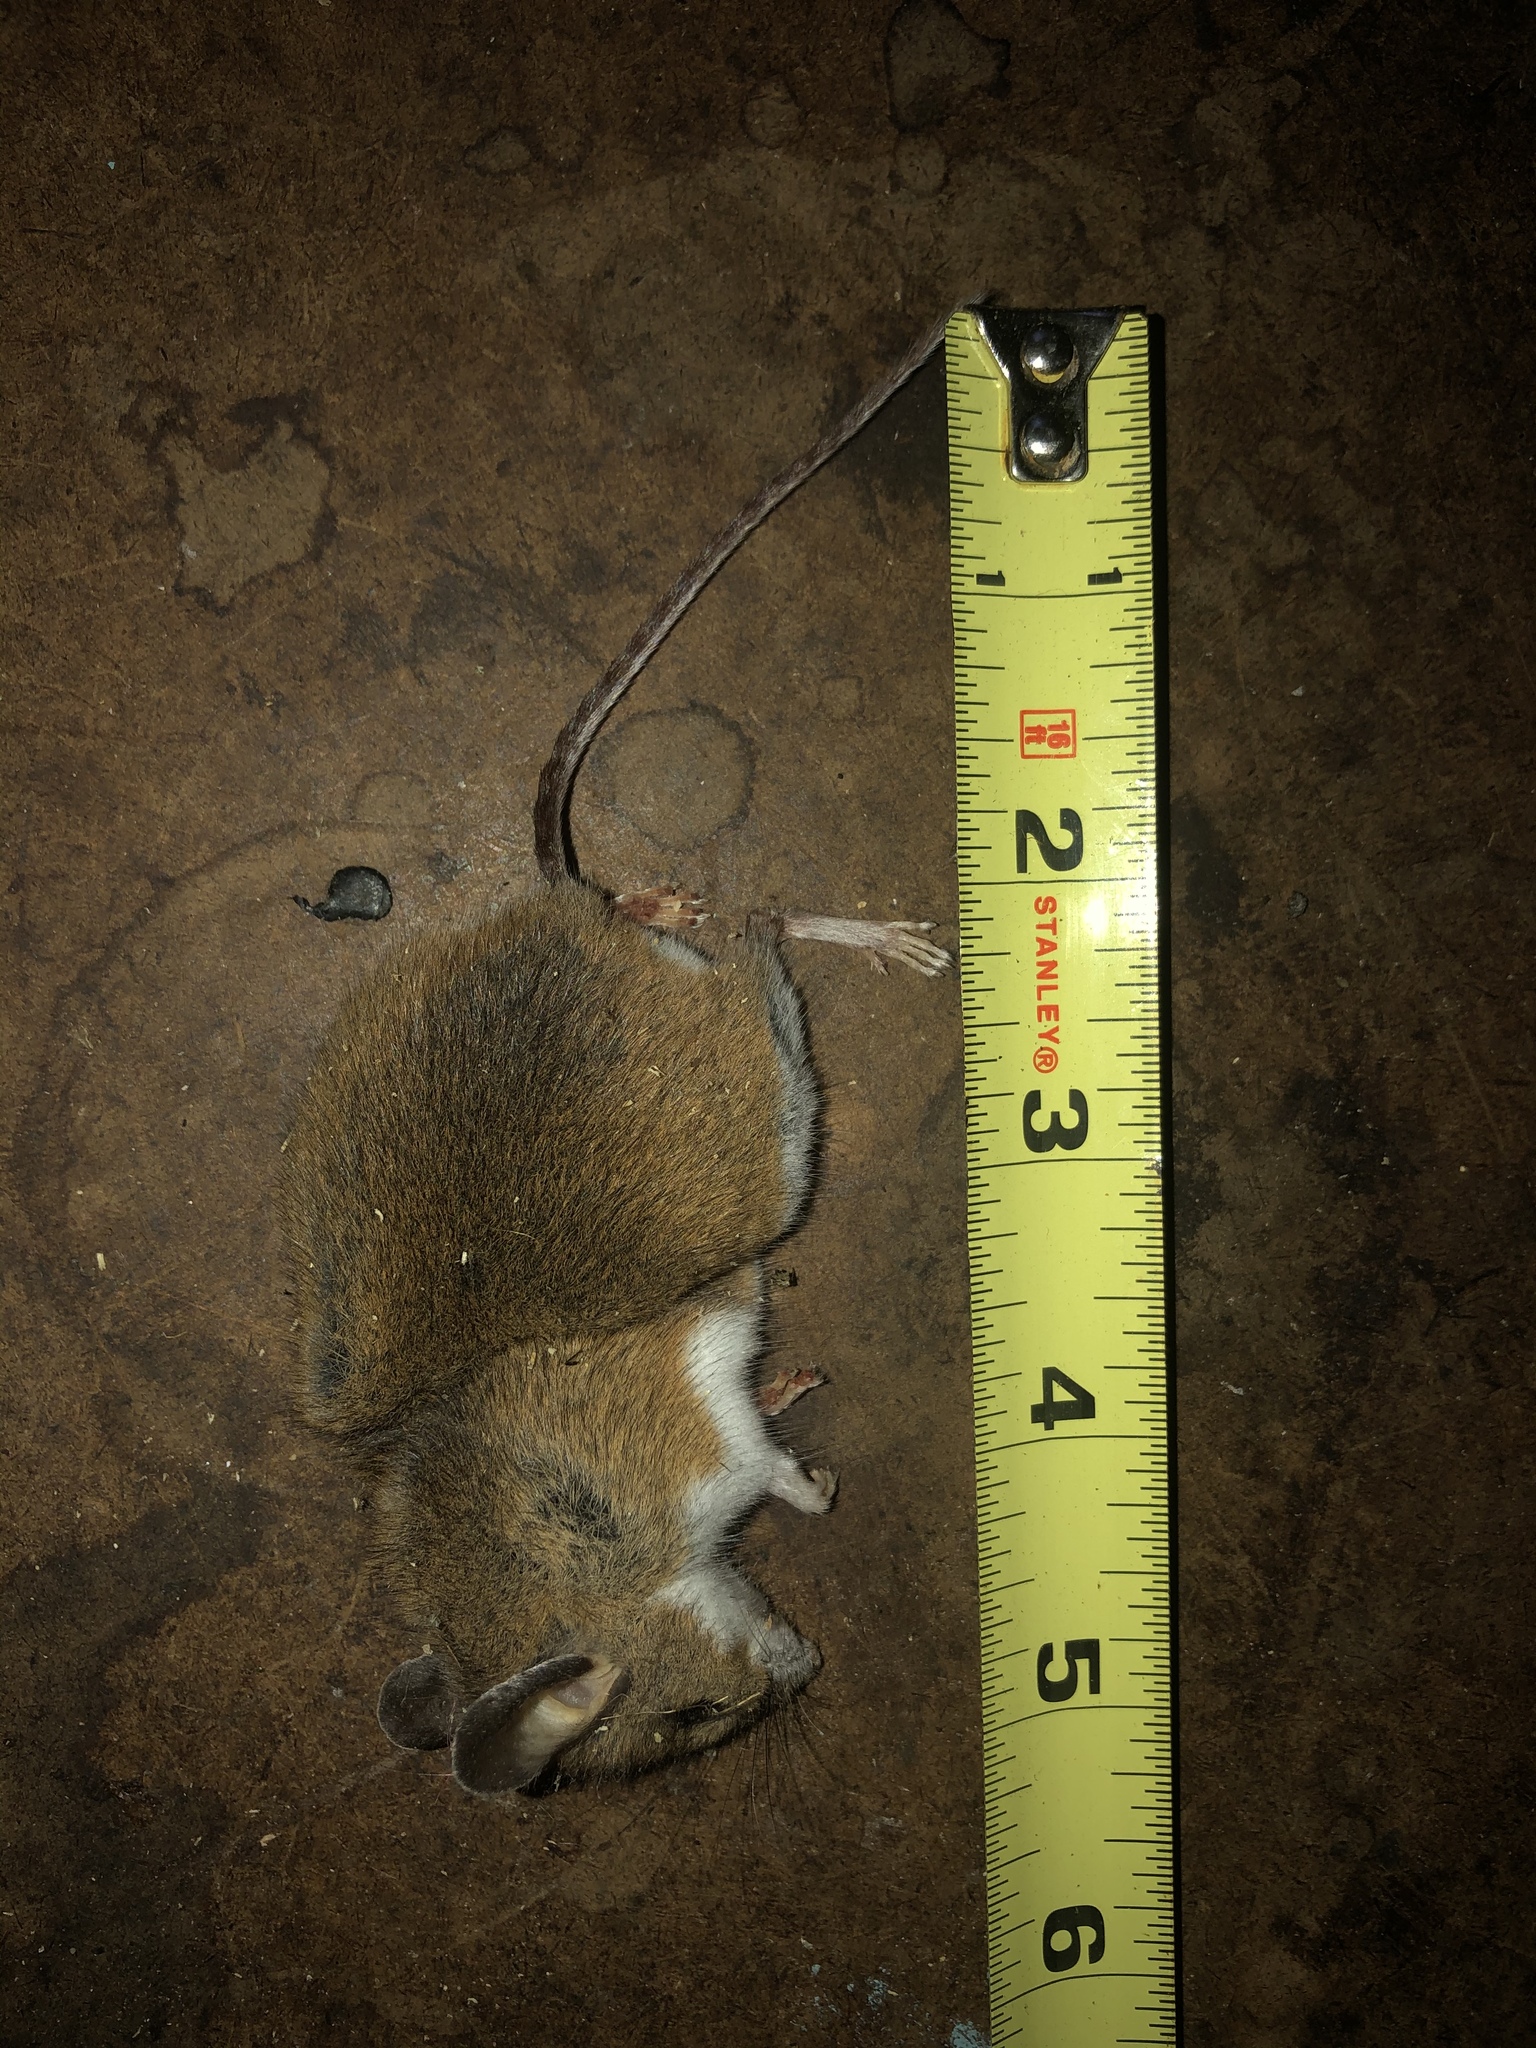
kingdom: Animalia
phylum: Chordata
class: Mammalia
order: Rodentia
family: Cricetidae
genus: Peromyscus
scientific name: Peromyscus maniculatus
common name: Deer mouse
